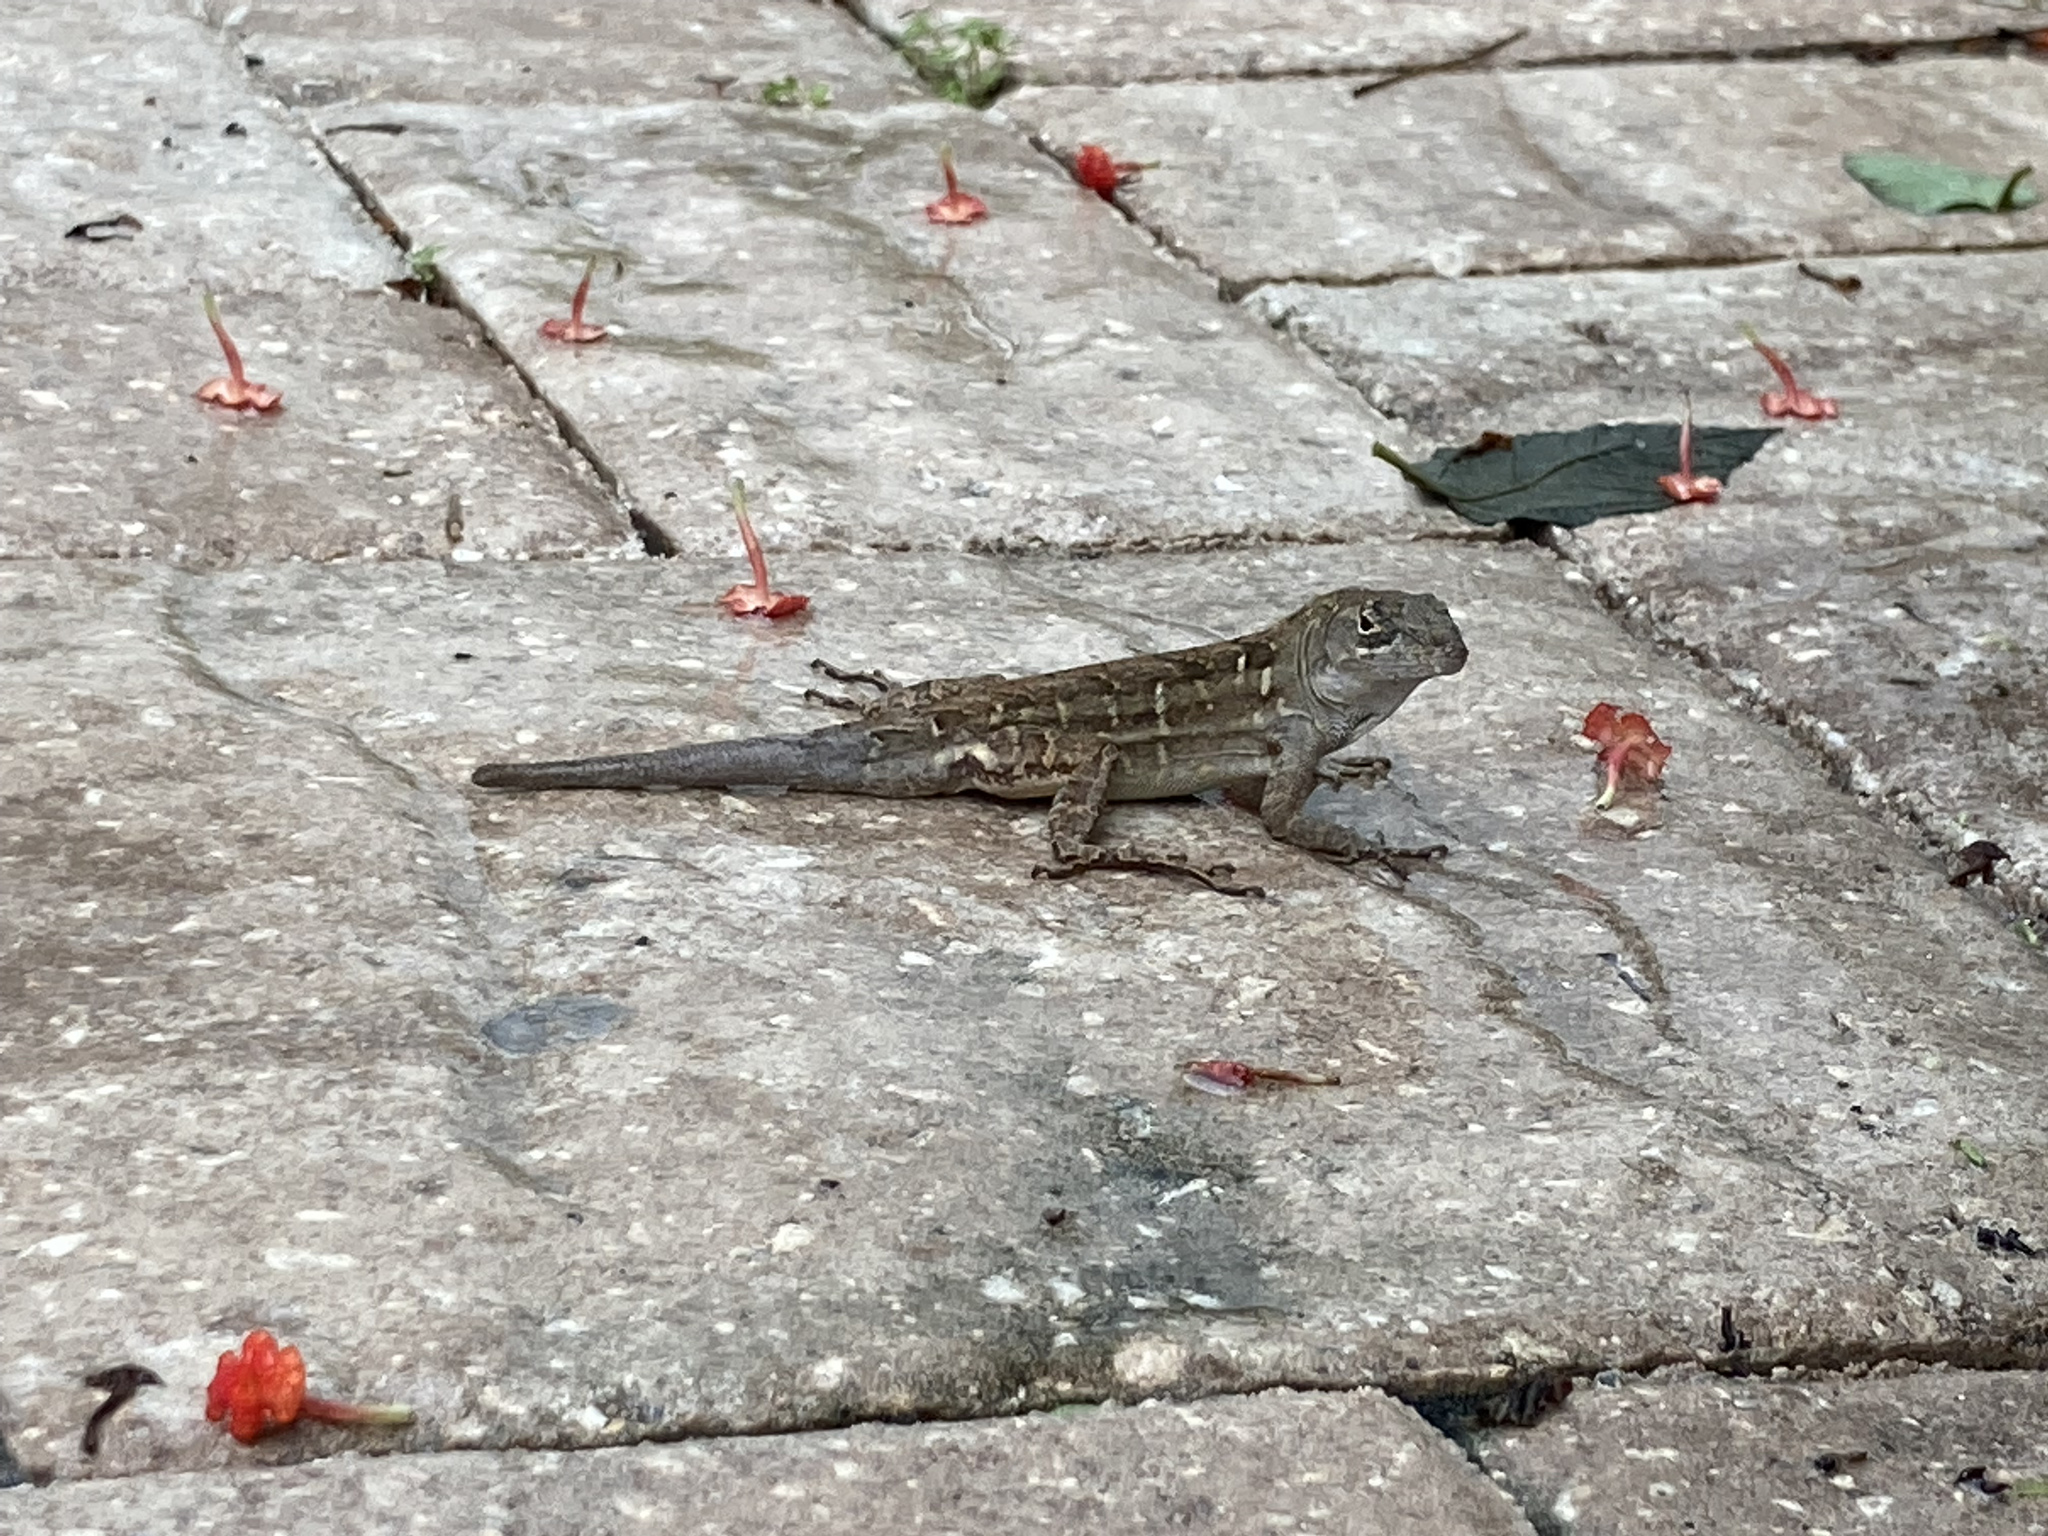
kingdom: Animalia
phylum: Chordata
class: Squamata
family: Dactyloidae
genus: Anolis
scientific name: Anolis sagrei
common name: Brown anole
